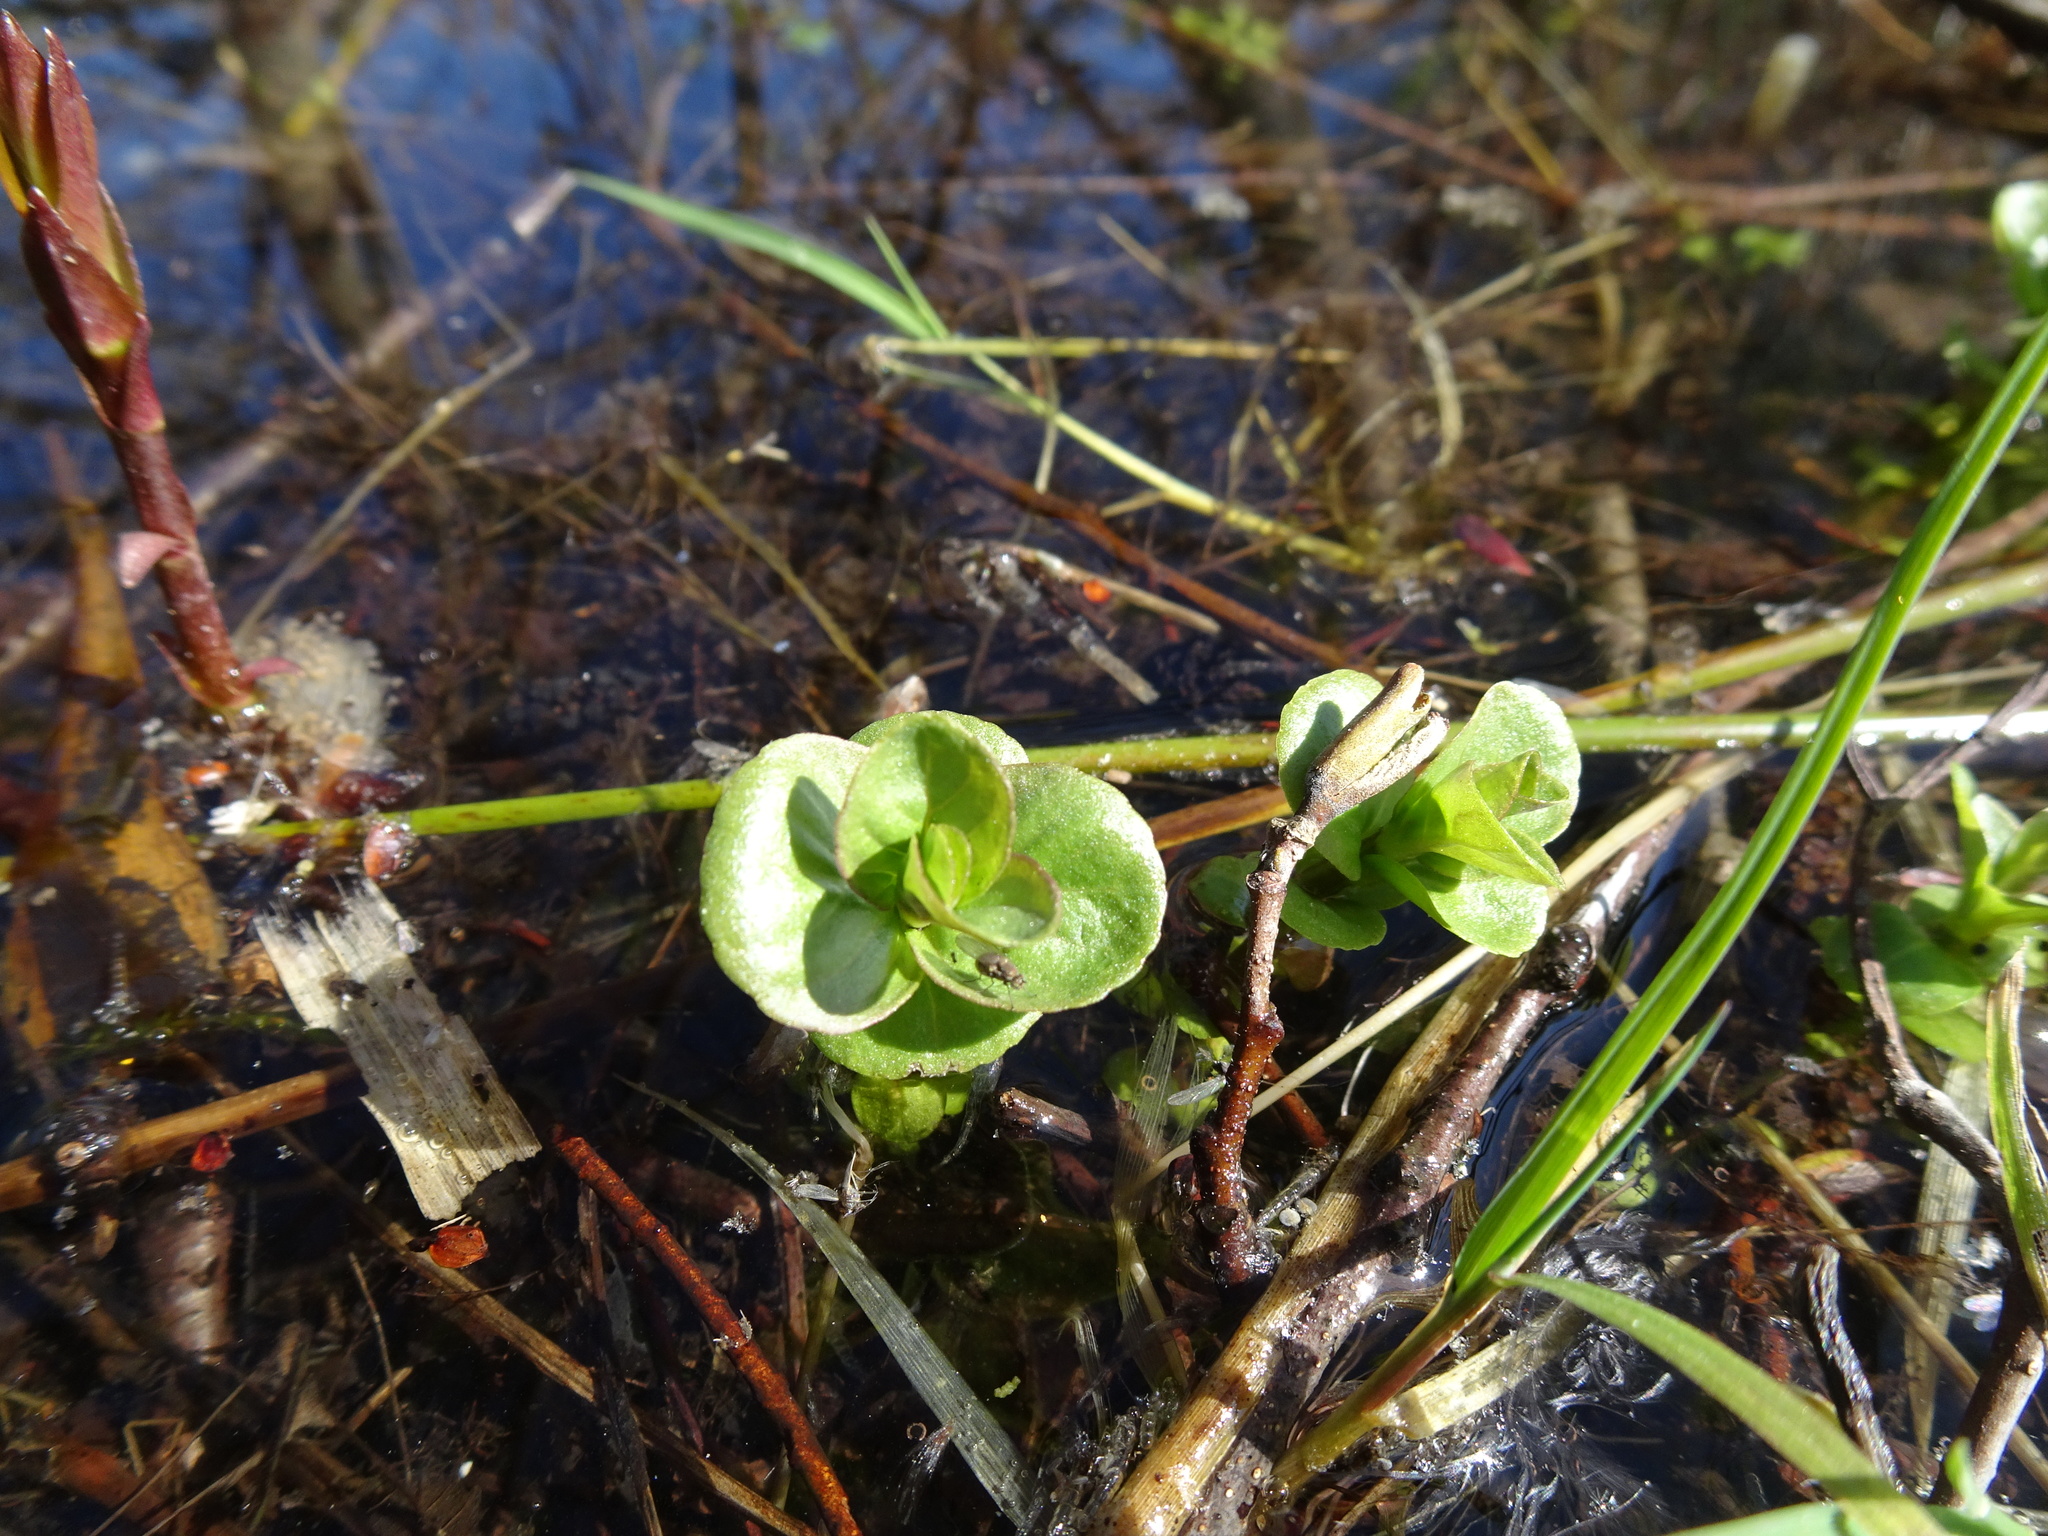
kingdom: Plantae
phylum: Tracheophyta
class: Magnoliopsida
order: Lamiales
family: Lamiaceae
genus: Mentha
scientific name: Mentha aquatica
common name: Water mint
